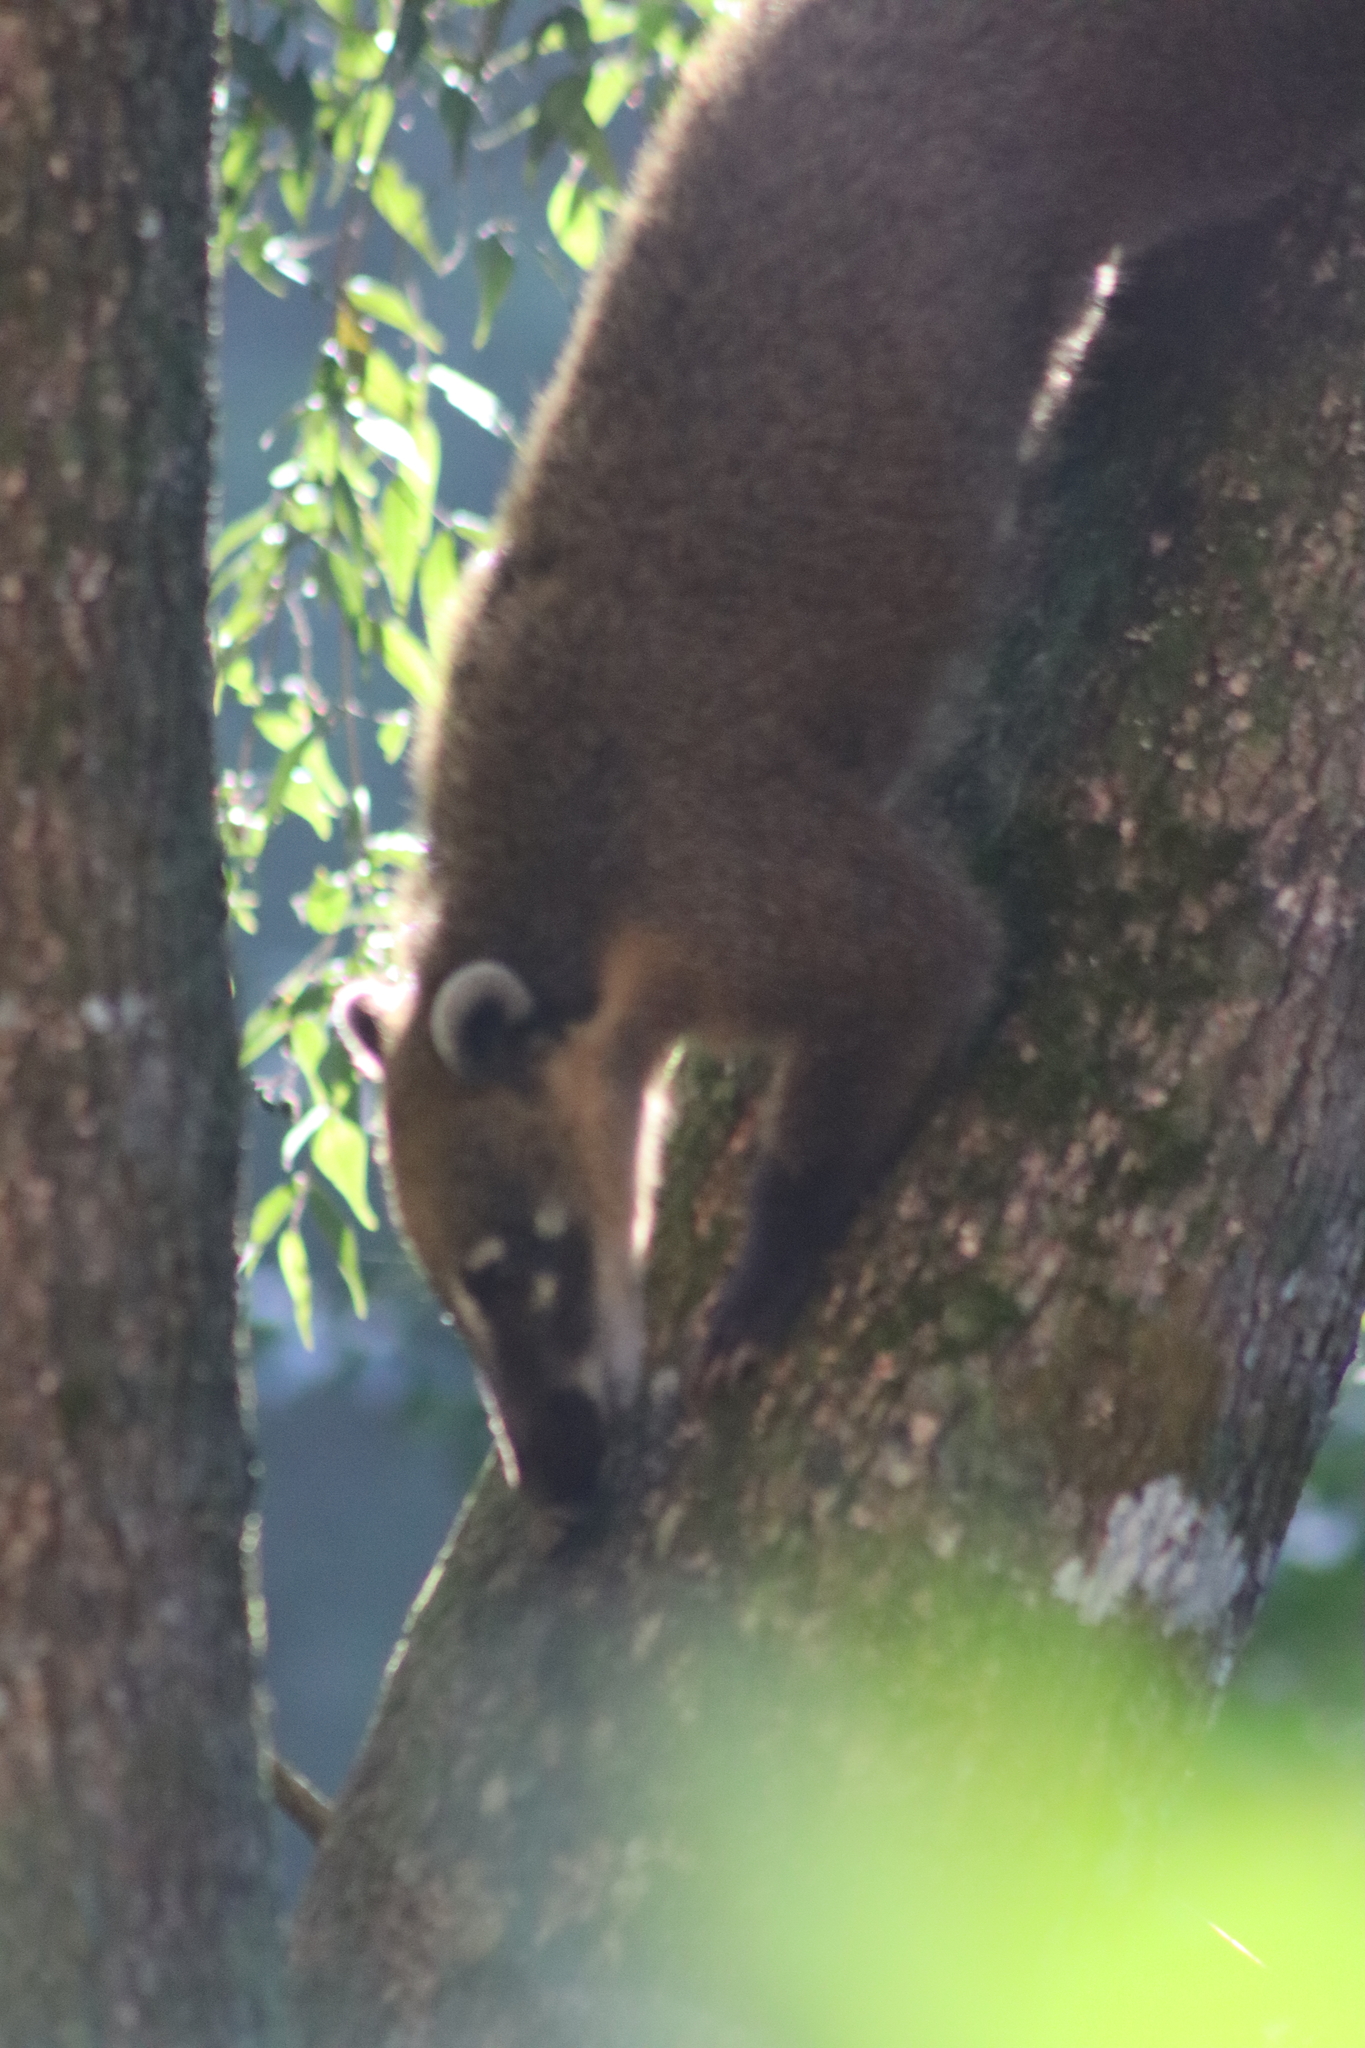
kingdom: Animalia
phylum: Chordata
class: Mammalia
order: Carnivora
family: Procyonidae
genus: Nasua
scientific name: Nasua nasua
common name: South american coati
